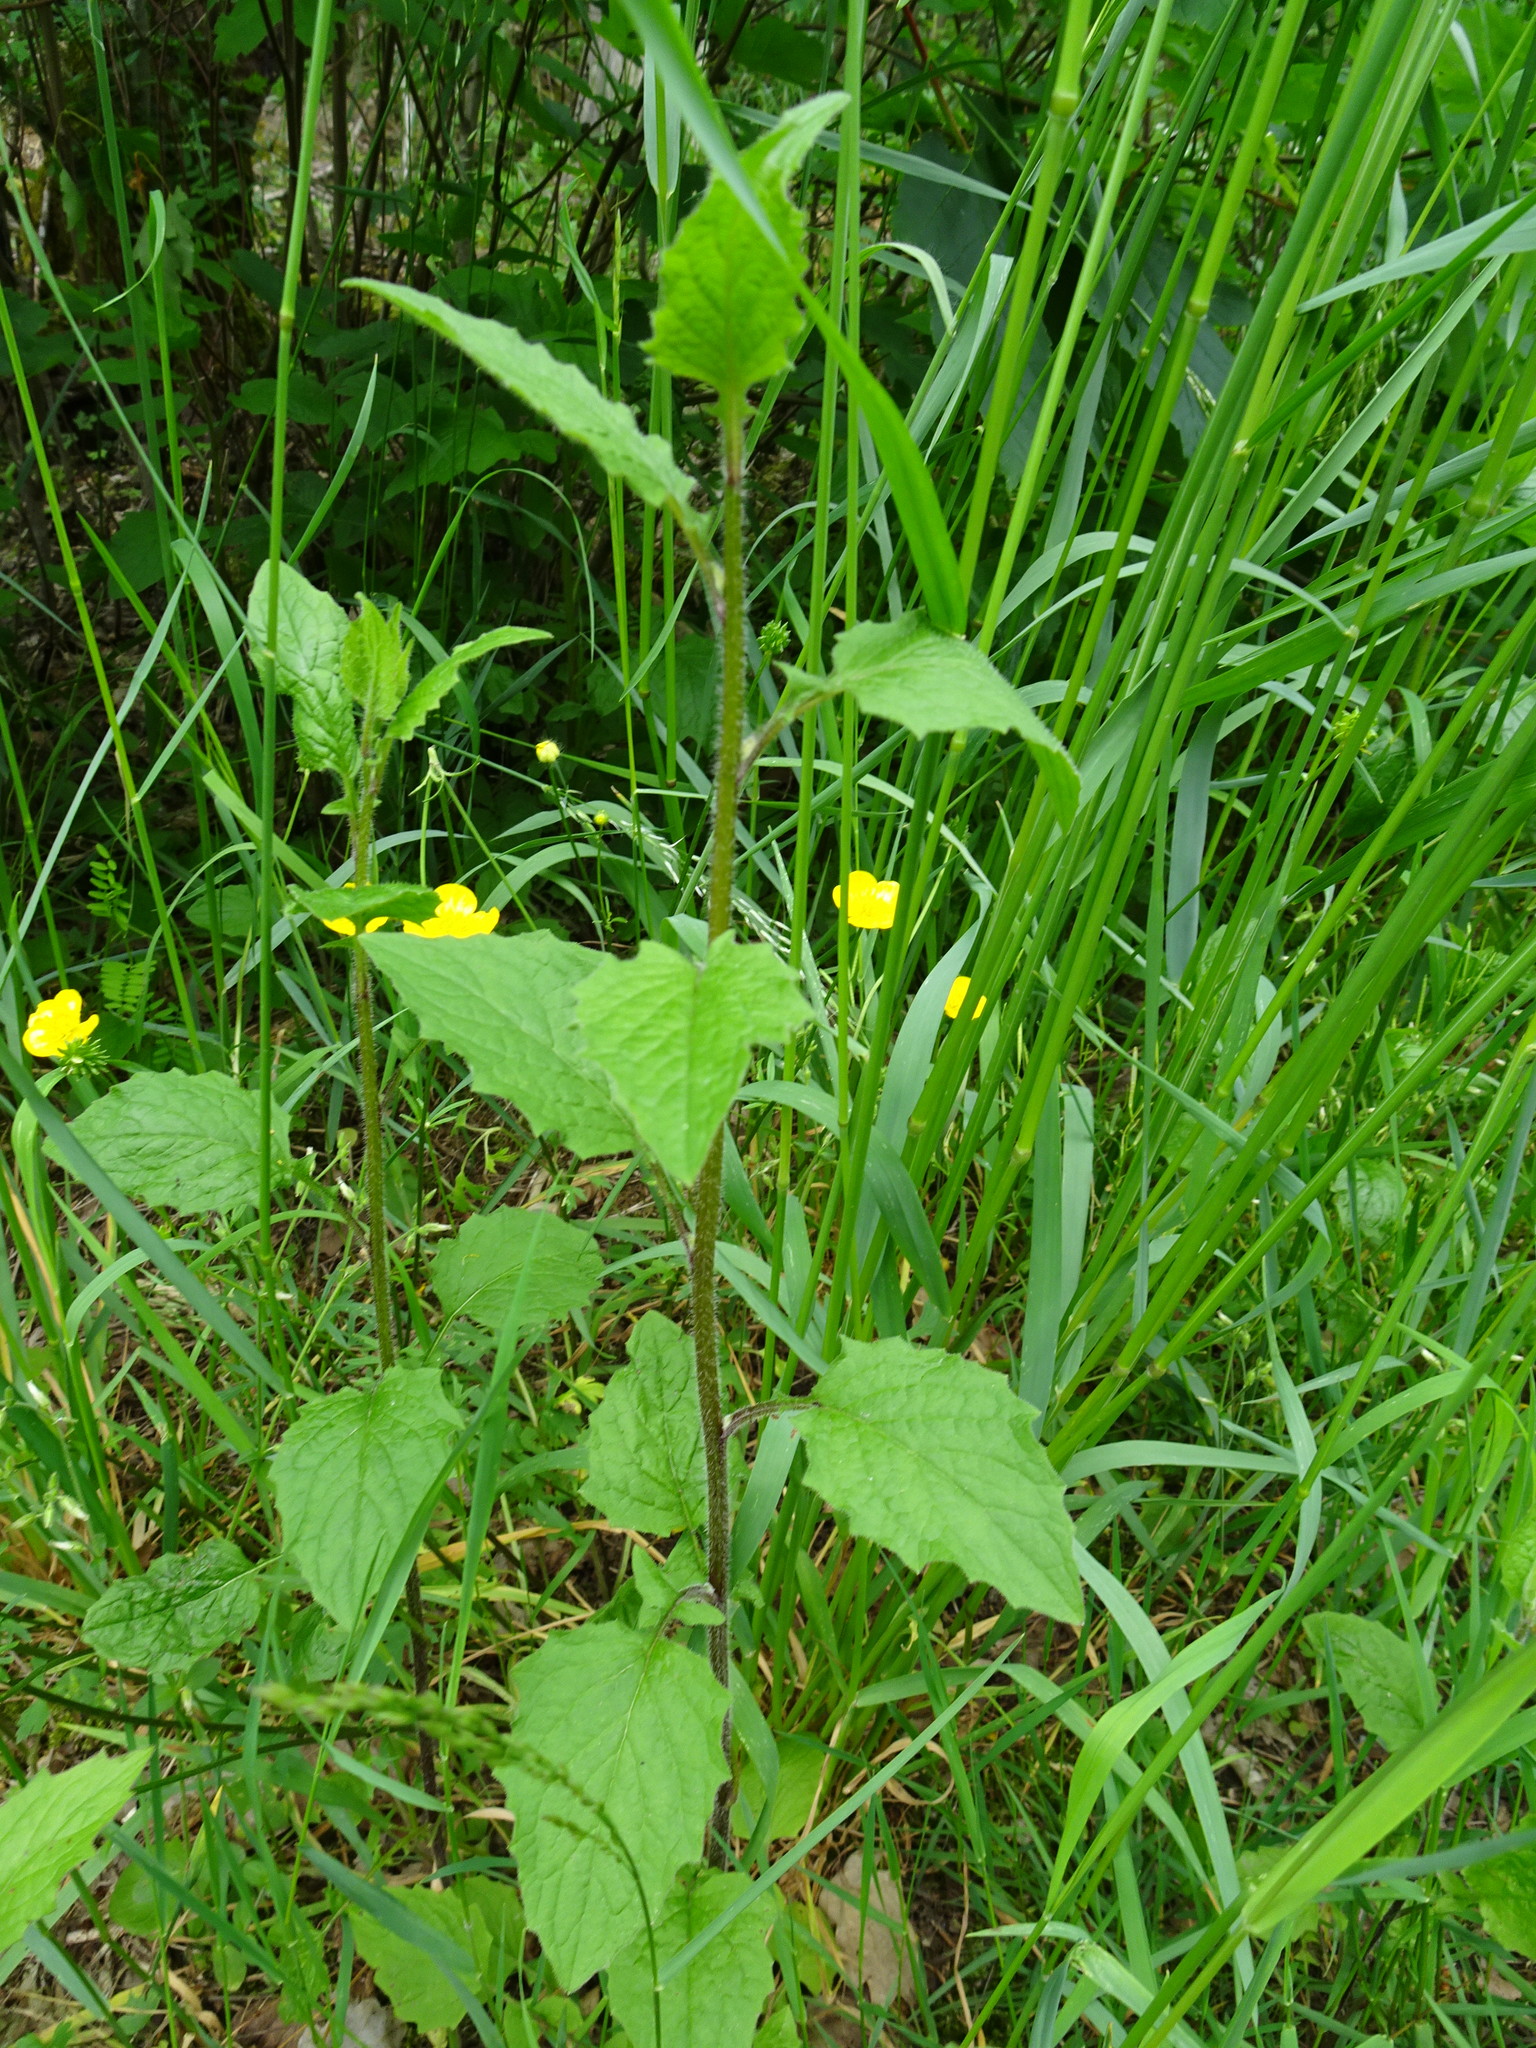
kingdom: Plantae
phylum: Tracheophyta
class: Magnoliopsida
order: Asterales
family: Asteraceae
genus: Lapsana
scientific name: Lapsana communis
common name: Nipplewort
